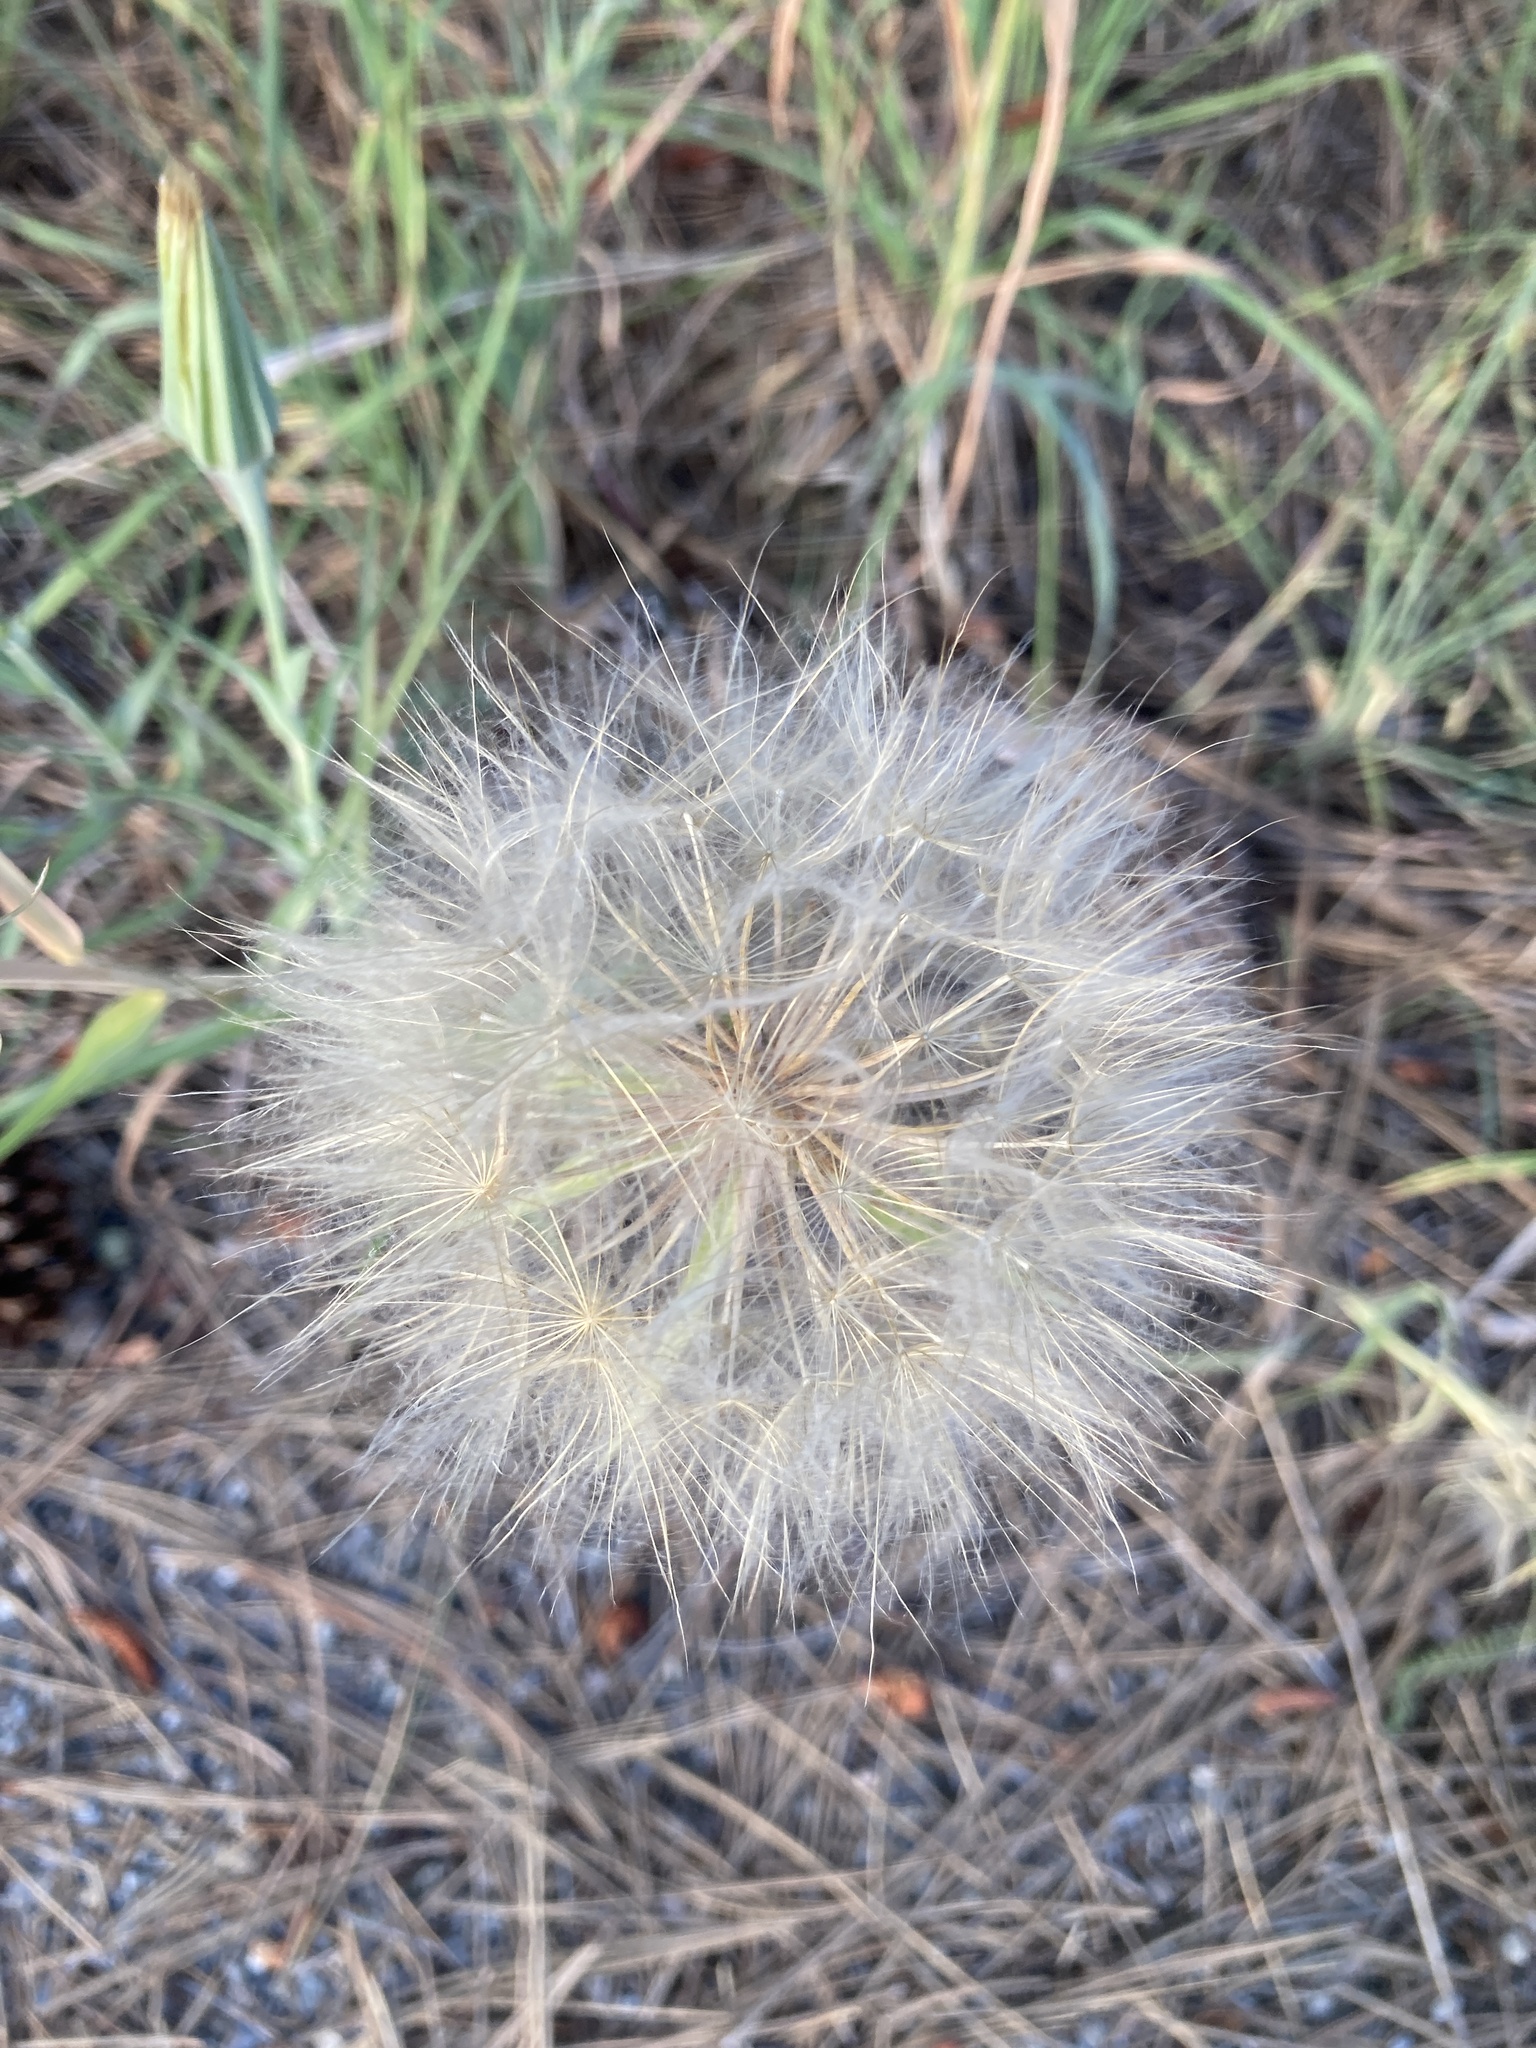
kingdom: Plantae
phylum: Tracheophyta
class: Magnoliopsida
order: Asterales
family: Asteraceae
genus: Tragopogon
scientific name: Tragopogon dubius
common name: Yellow salsify
